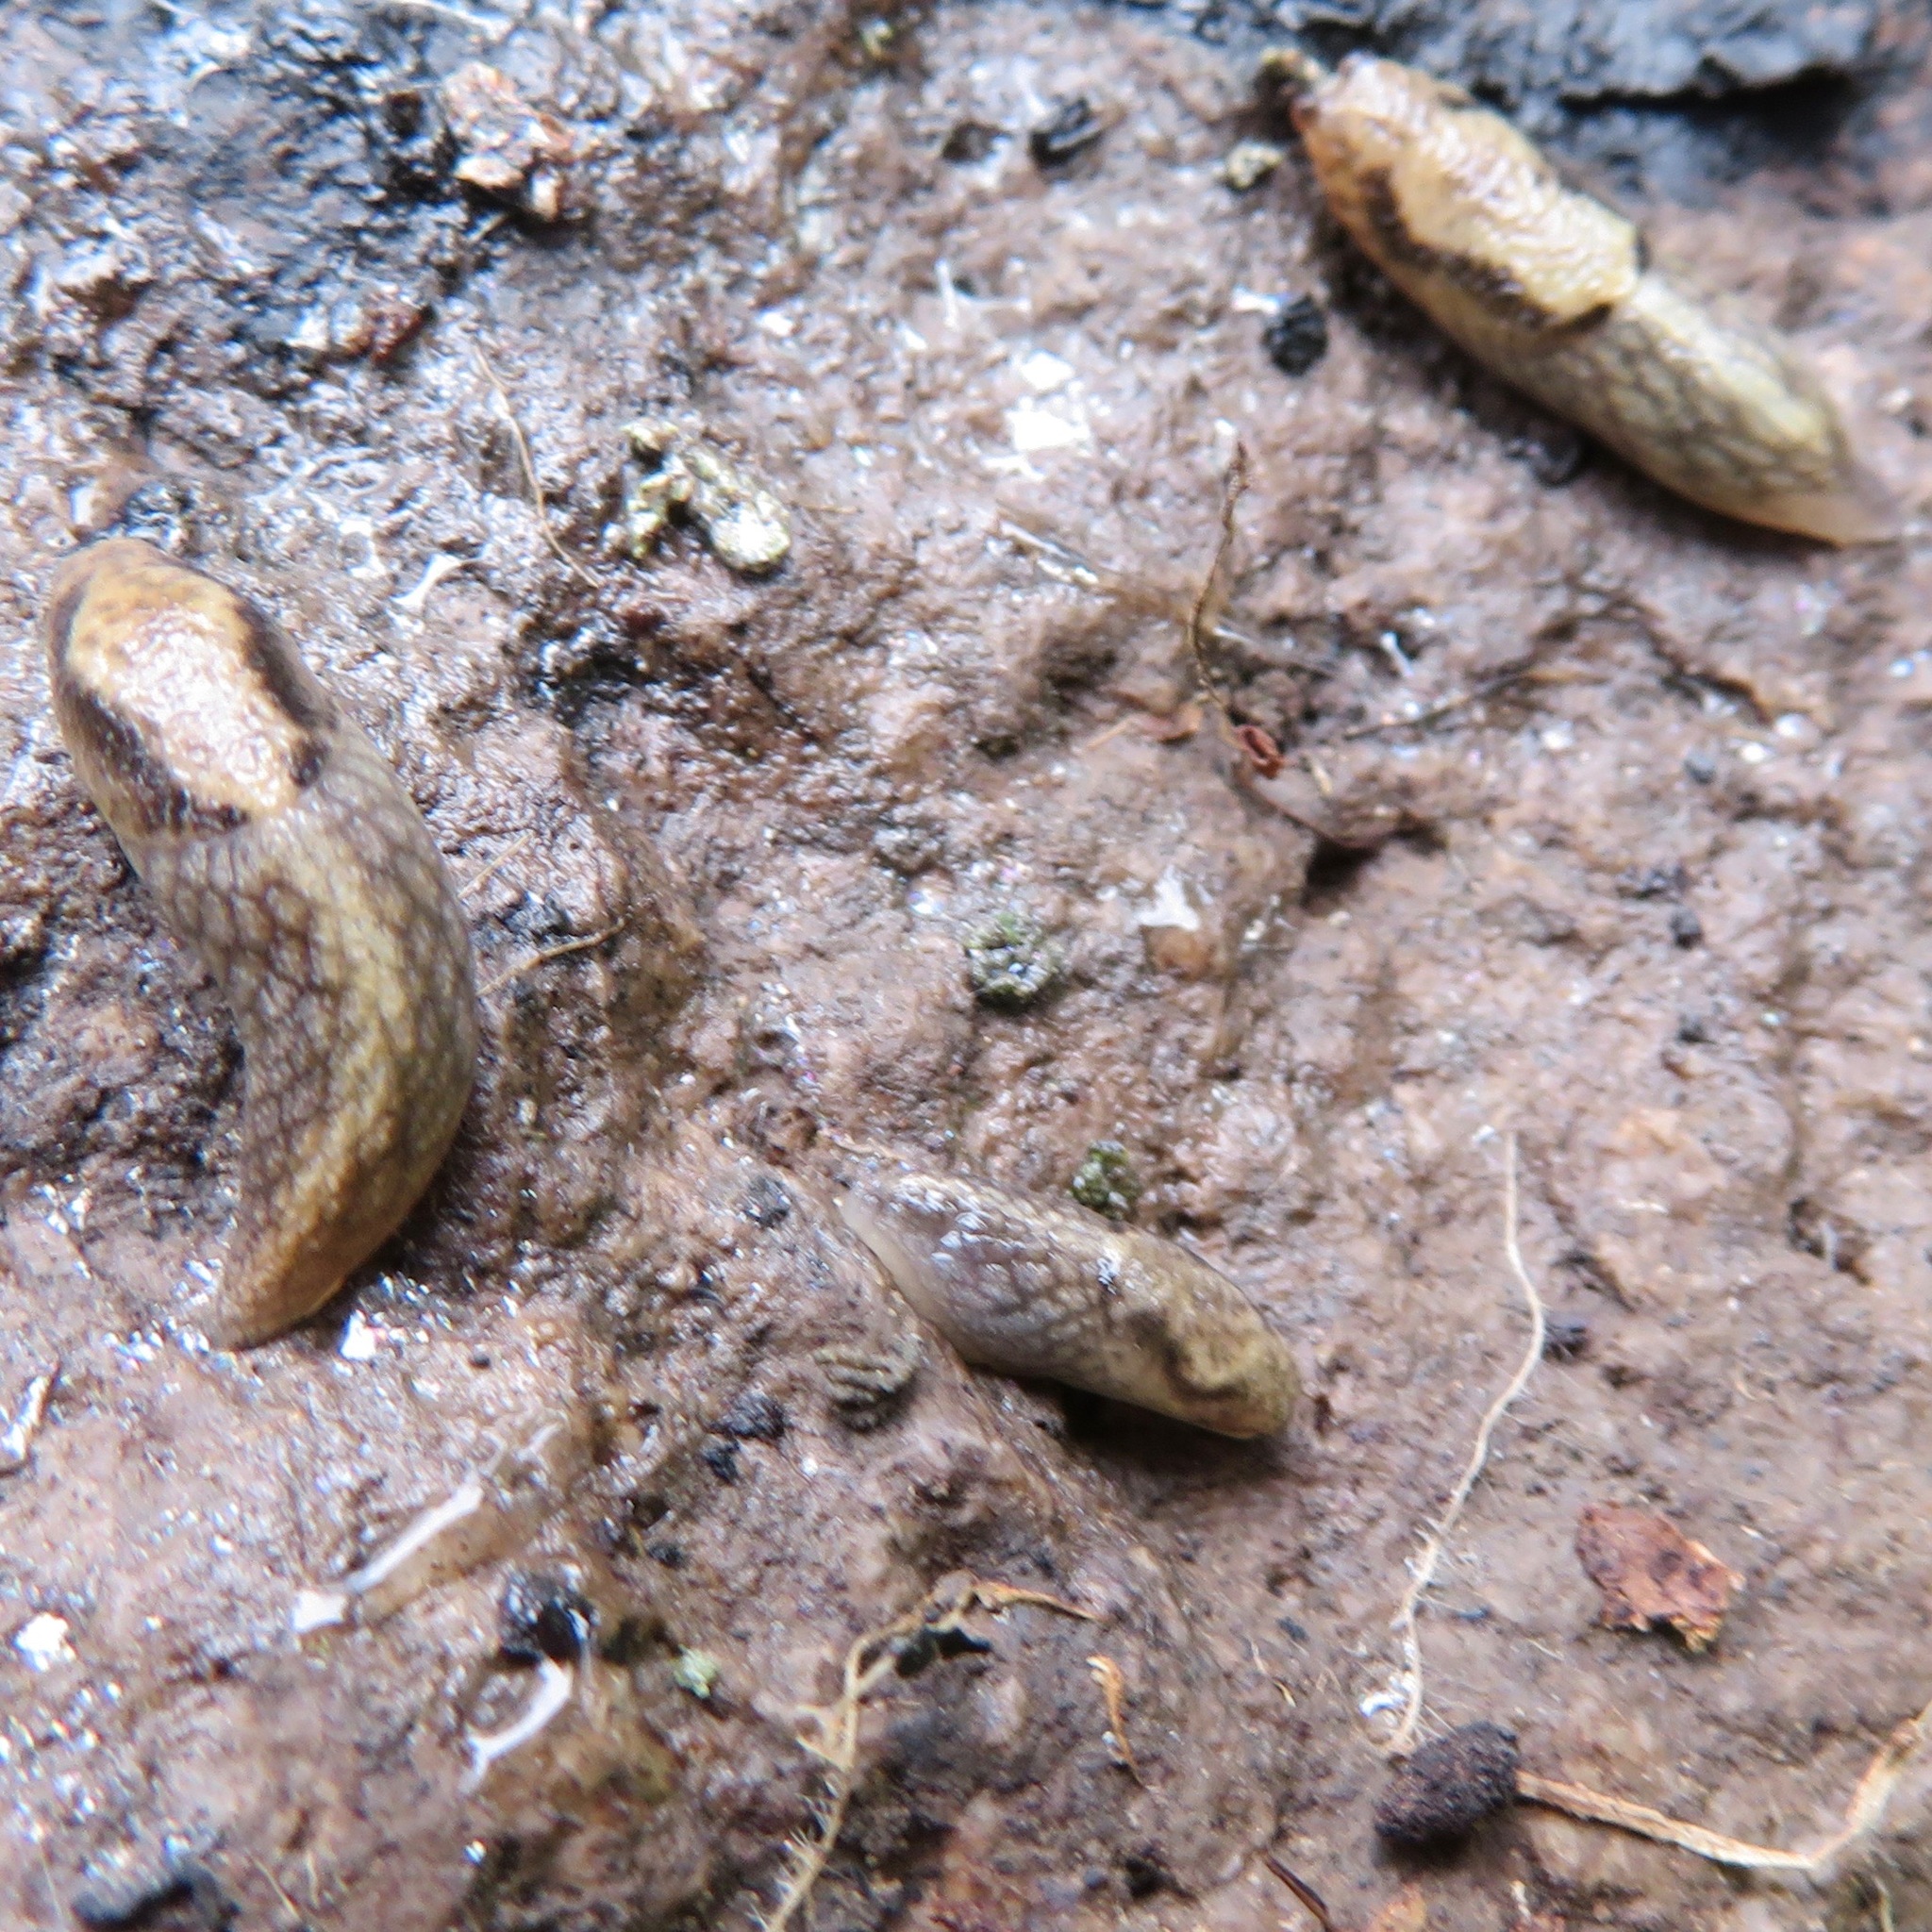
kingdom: Animalia
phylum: Mollusca
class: Gastropoda
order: Stylommatophora
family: Ariolimacidae
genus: Prophysaon
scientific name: Prophysaon andersonii
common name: Reticulate taildropper
